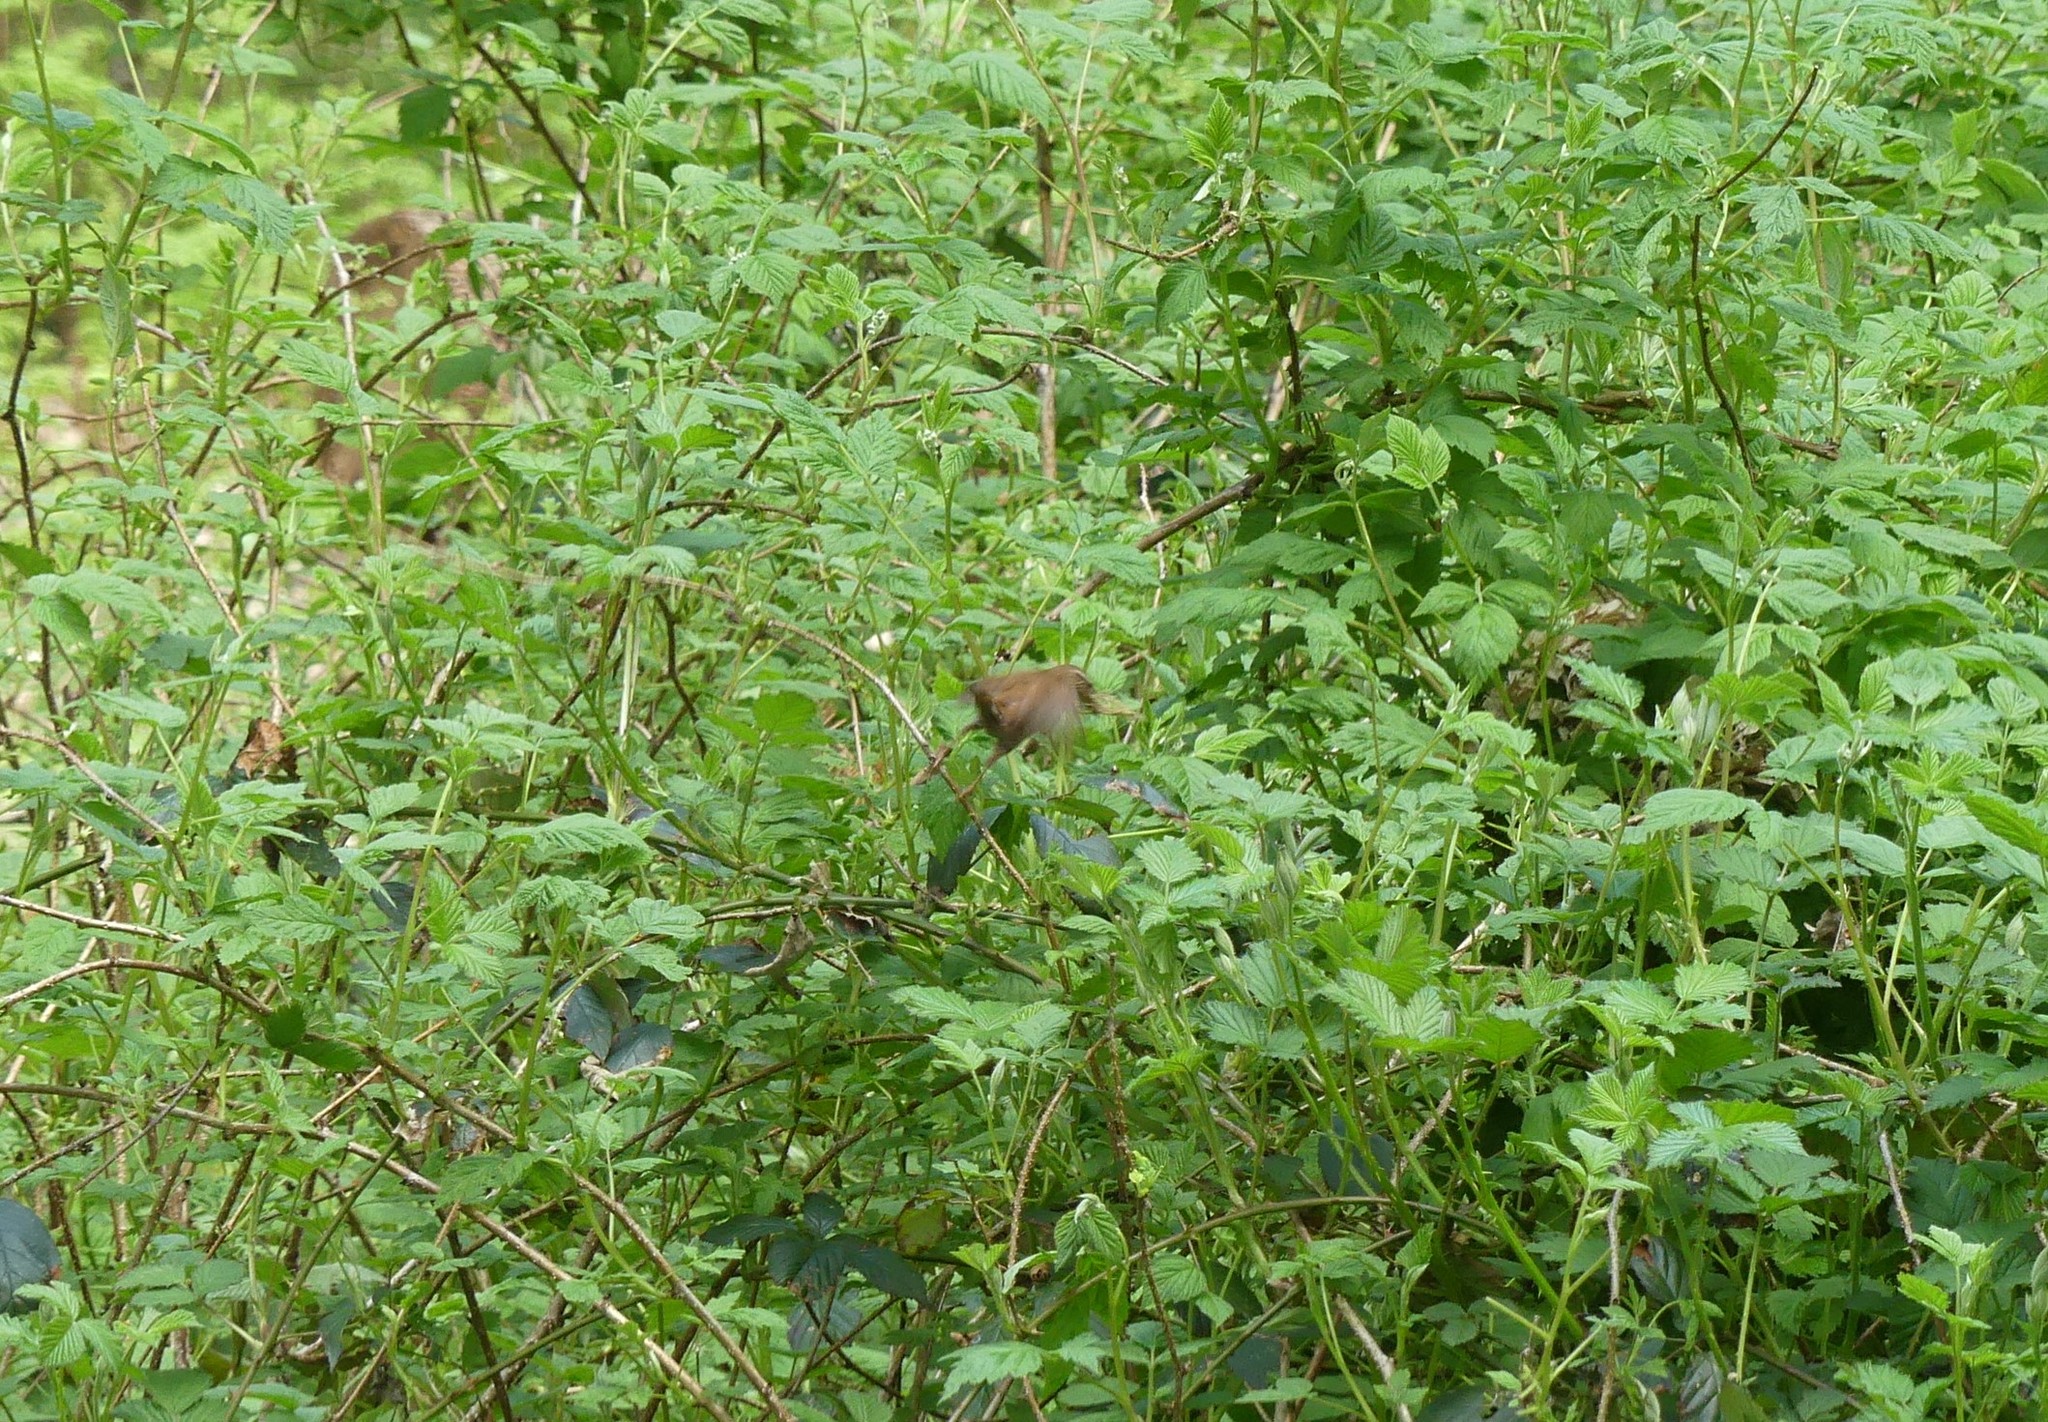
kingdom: Animalia
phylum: Chordata
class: Aves
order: Passeriformes
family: Troglodytidae
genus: Troglodytes
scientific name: Troglodytes troglodytes
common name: Eurasian wren
